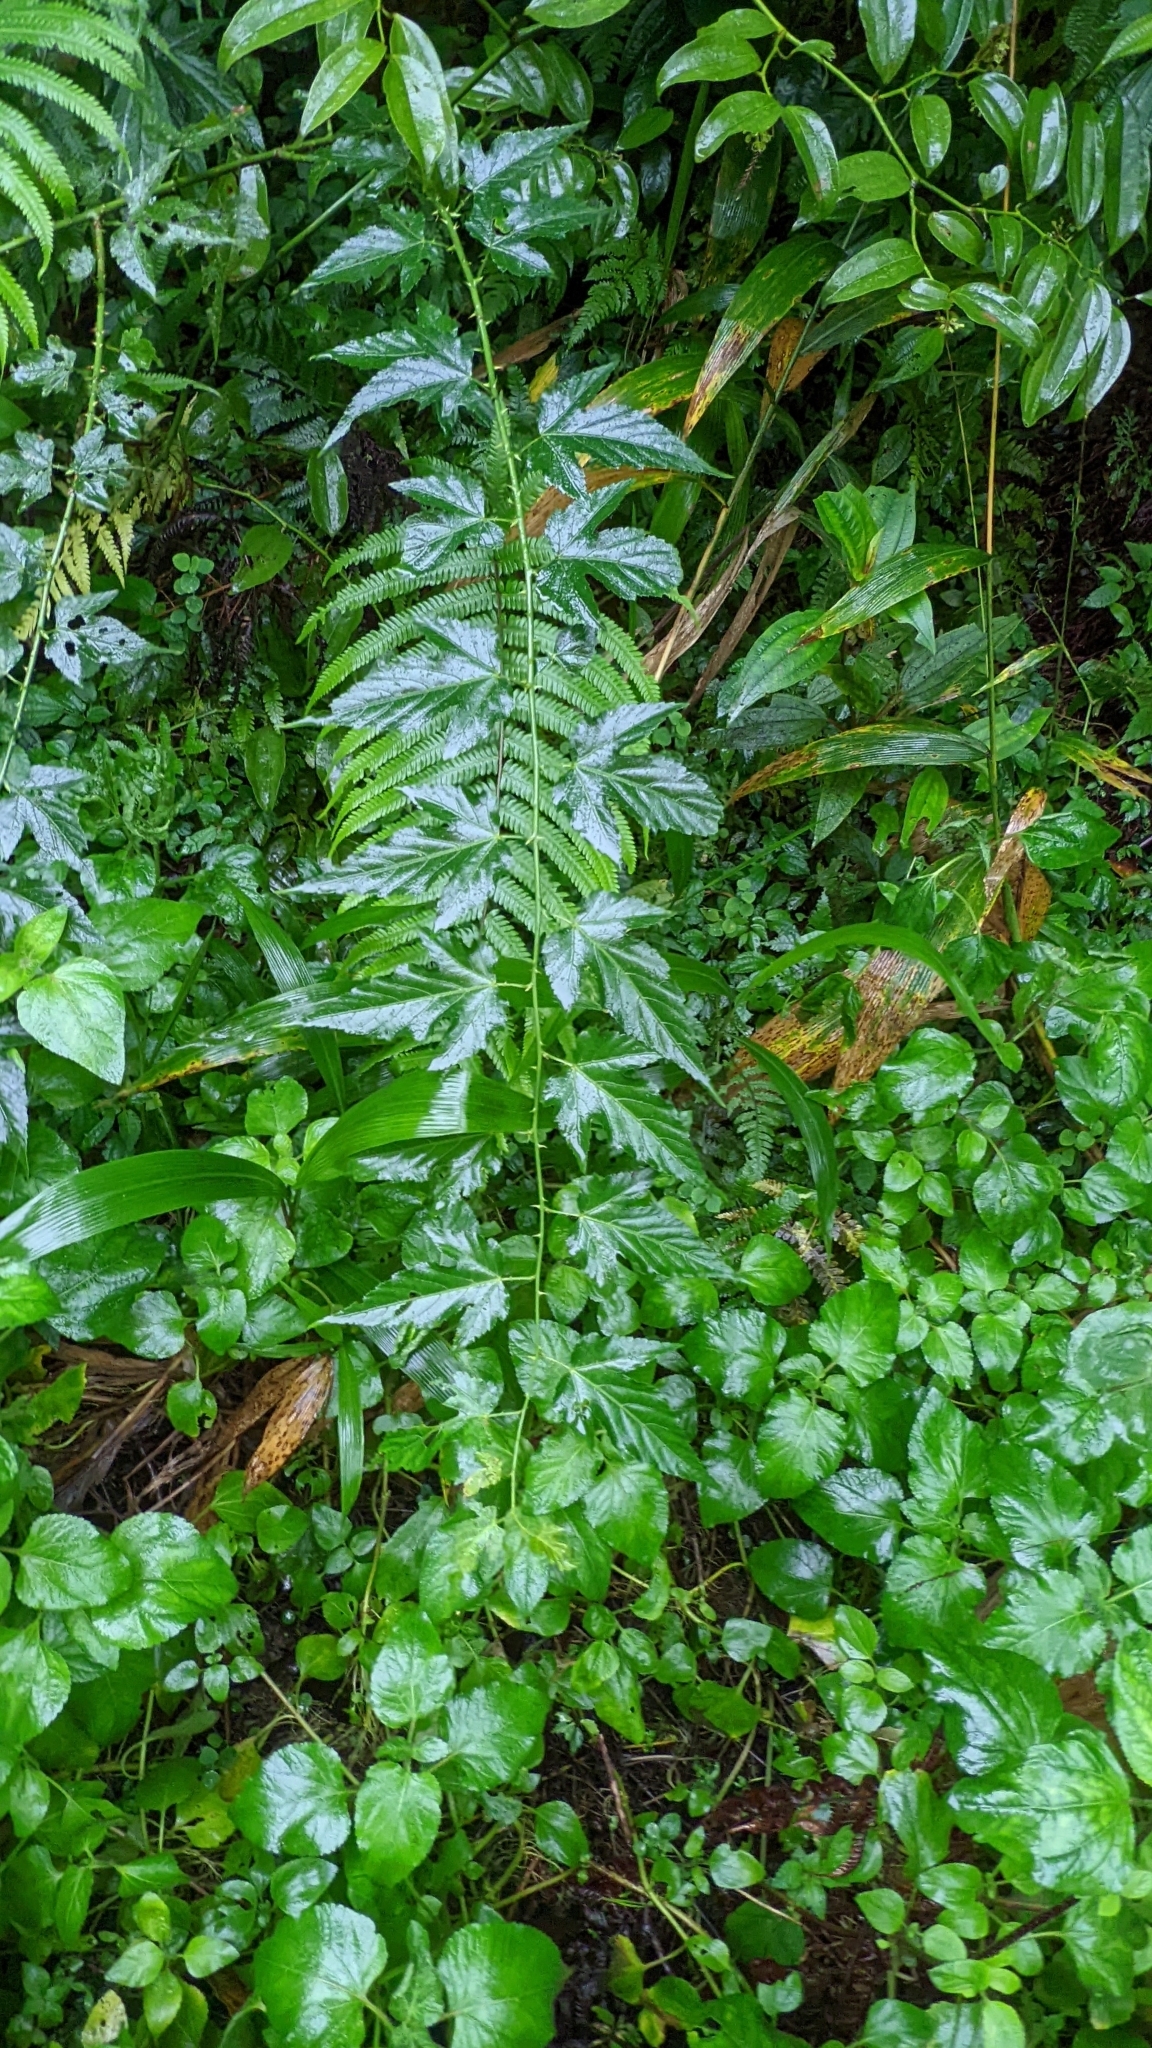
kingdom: Plantae
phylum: Tracheophyta
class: Magnoliopsida
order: Rosales
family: Rosaceae
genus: Rubus
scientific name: Rubus corchorifolius
